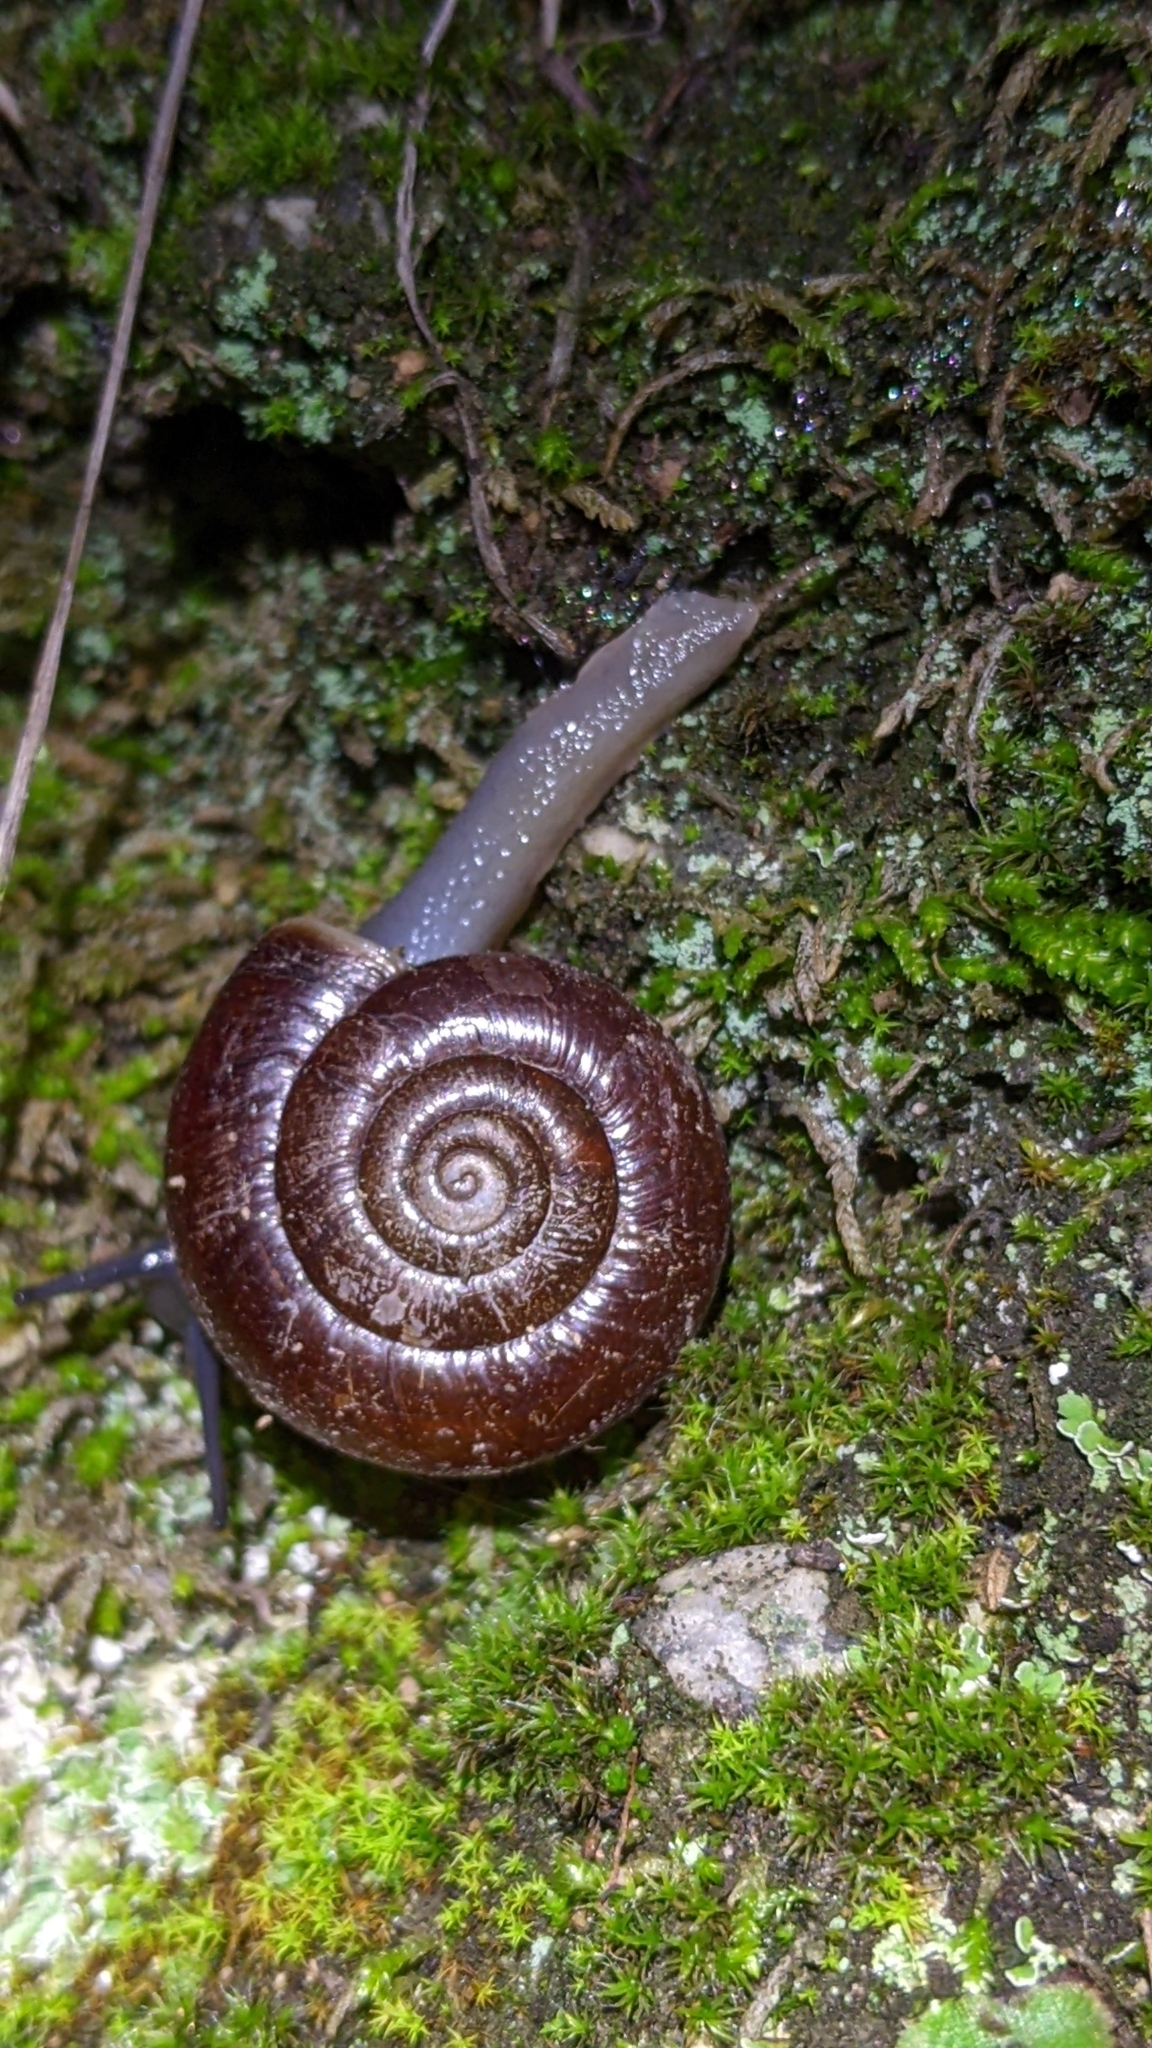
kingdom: Animalia
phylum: Mollusca
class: Gastropoda
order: Stylommatophora
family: Megomphicidae
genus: Glyptostoma
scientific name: Glyptostoma gabrielense
